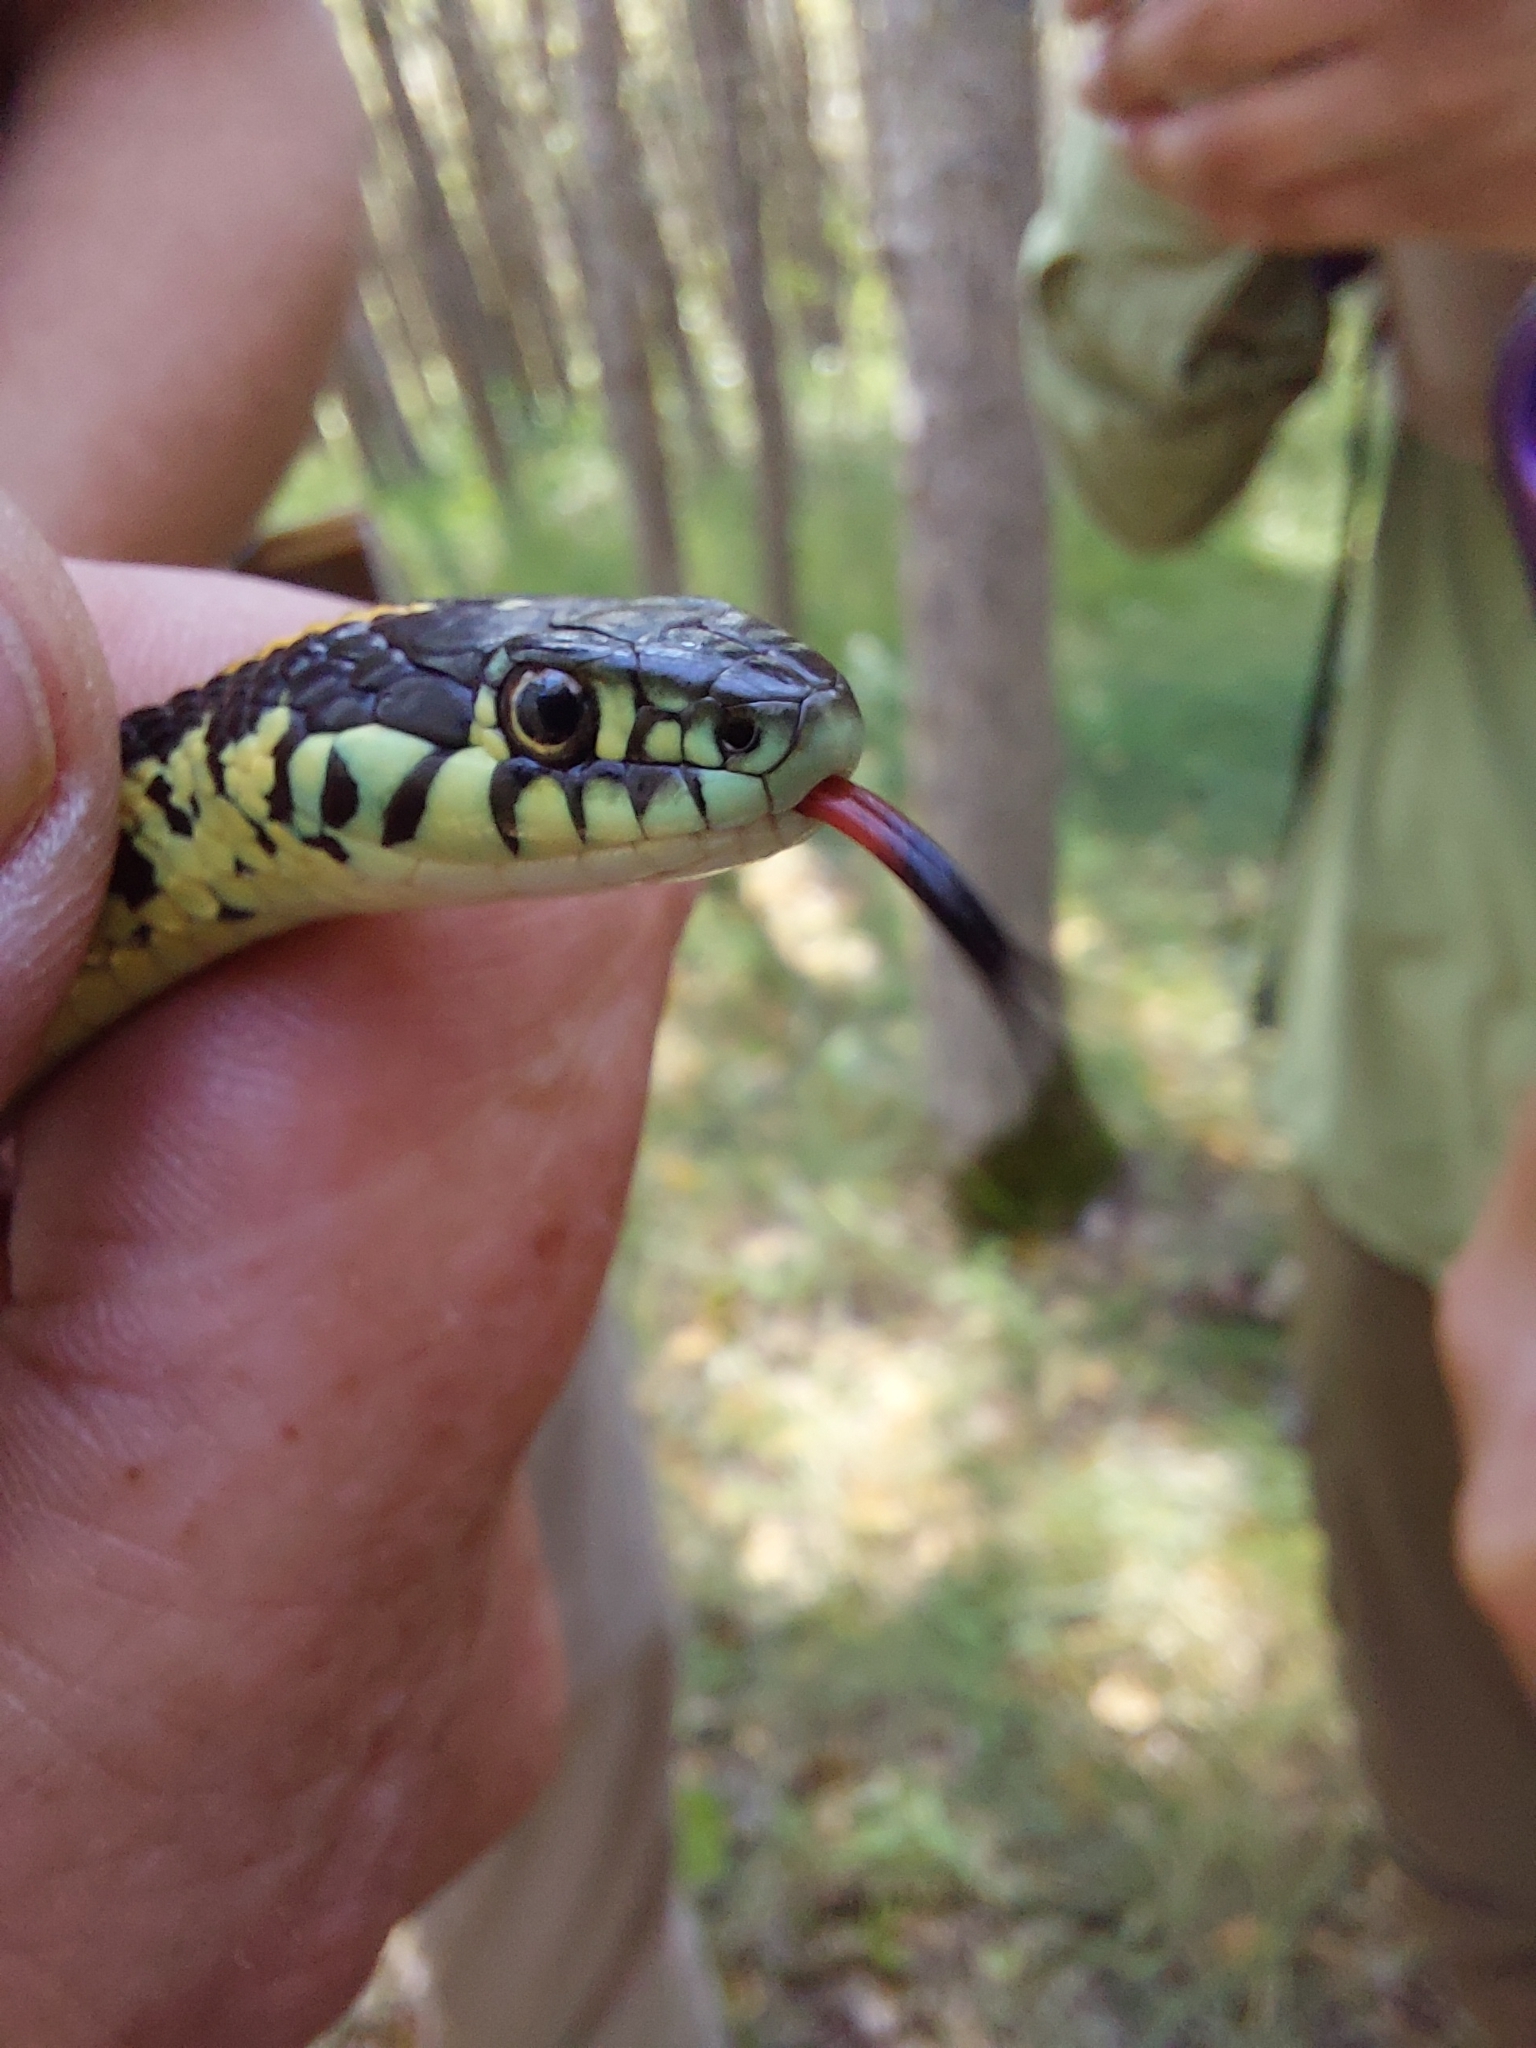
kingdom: Animalia
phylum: Chordata
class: Squamata
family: Colubridae
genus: Thamnophis
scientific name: Thamnophis radix
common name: Plains garter snake
